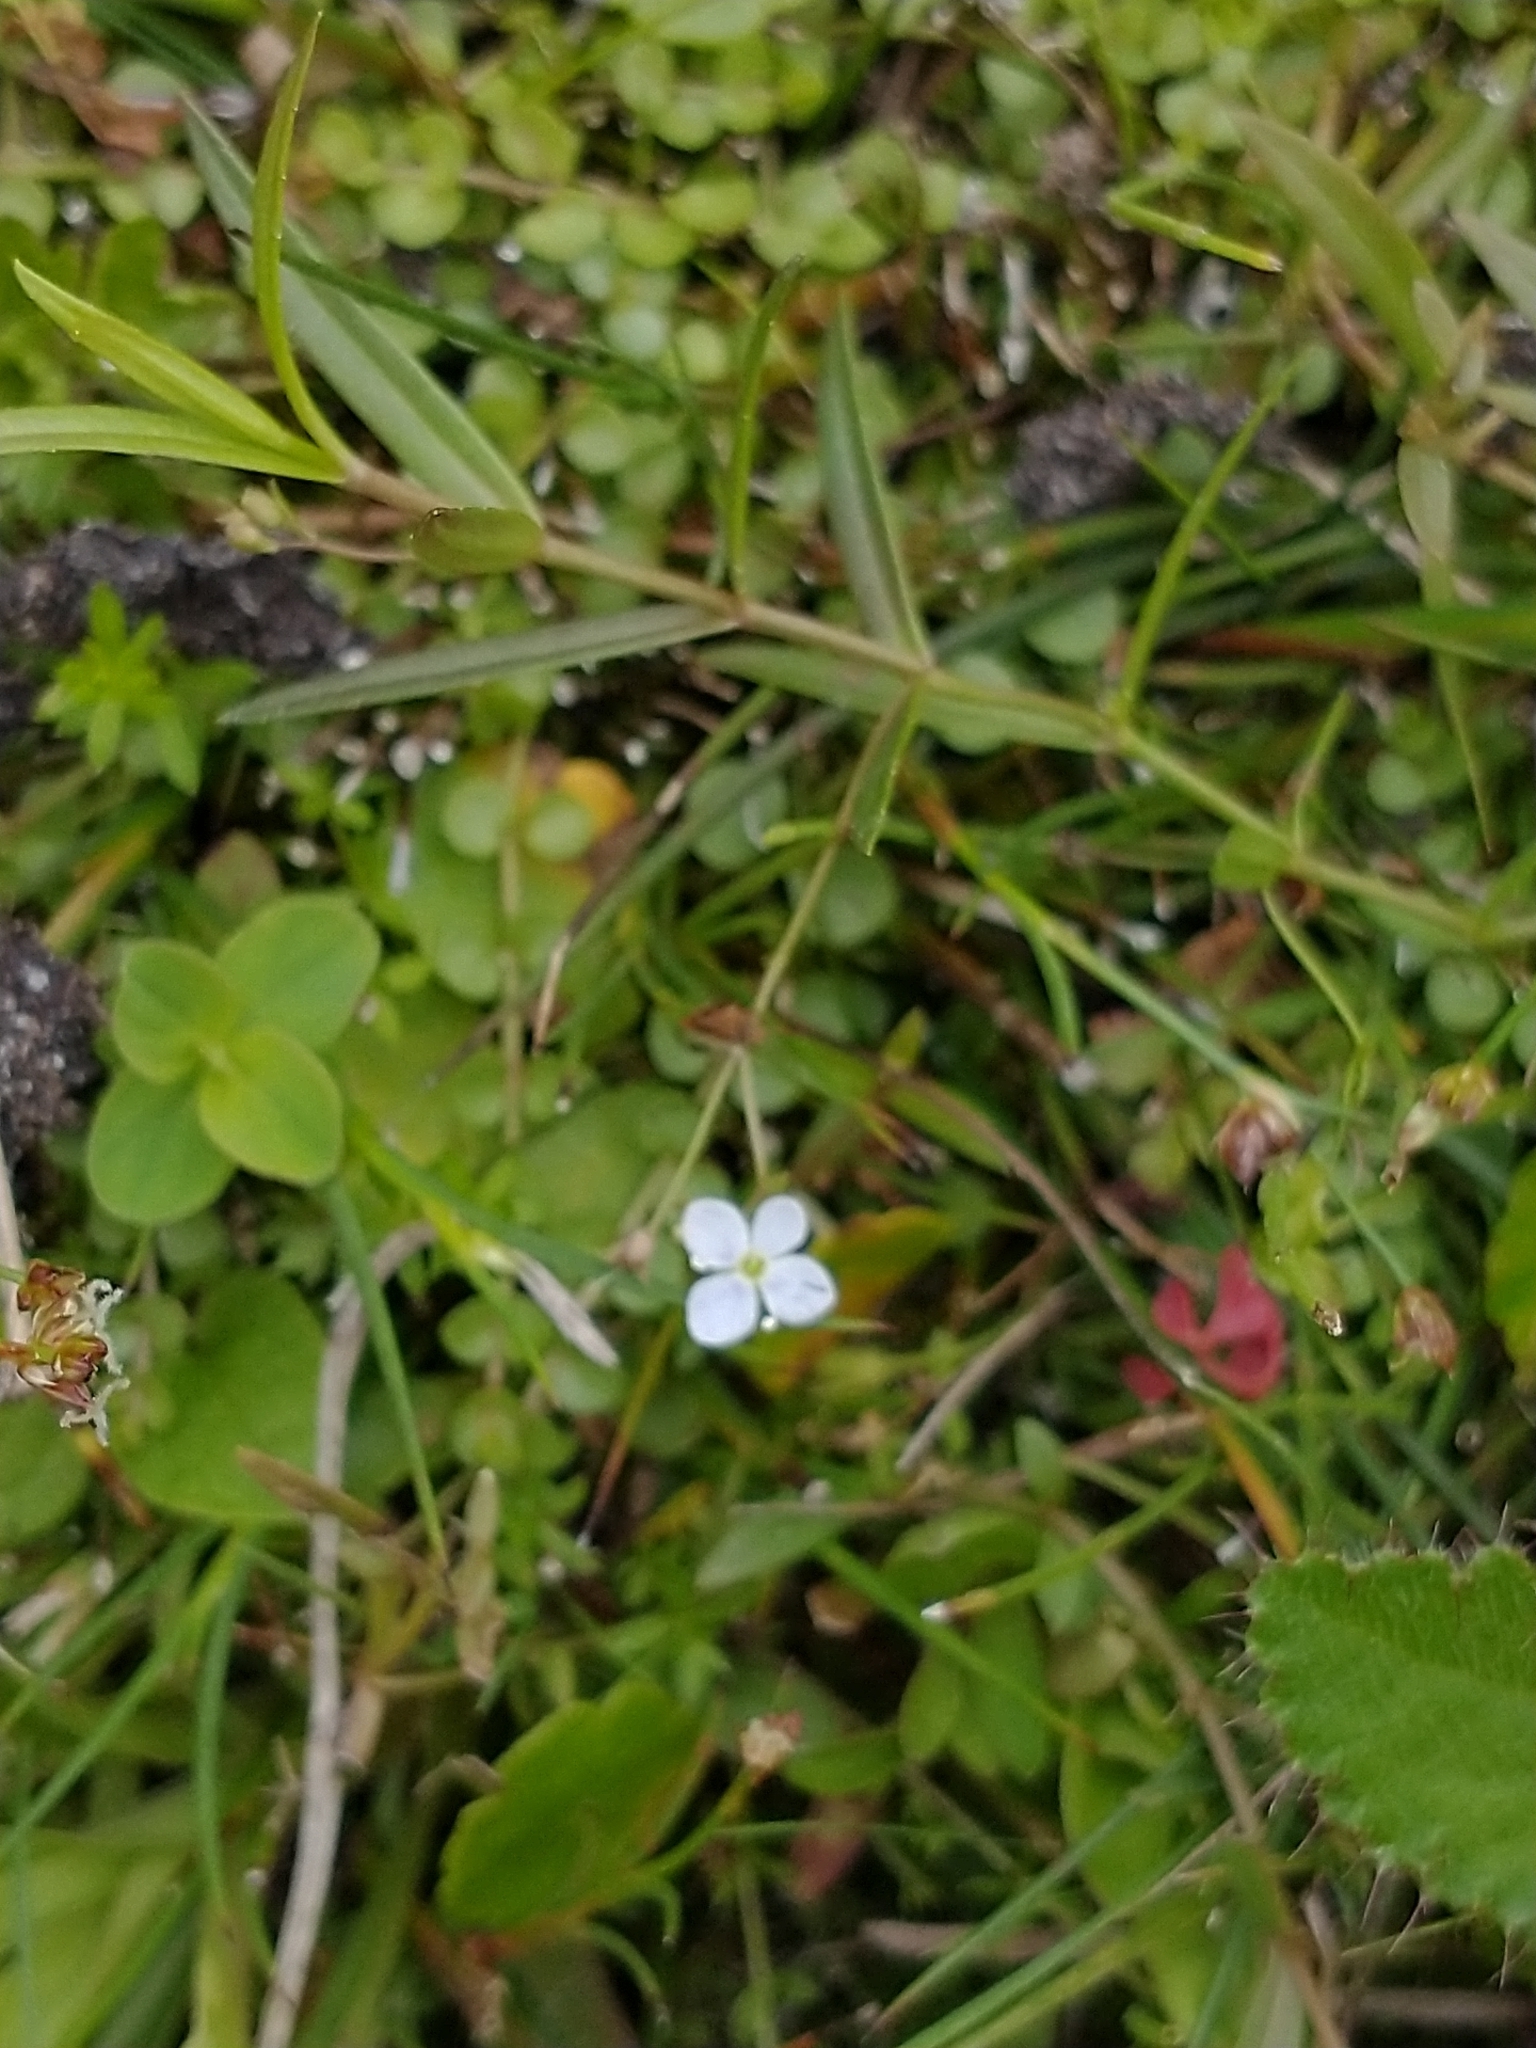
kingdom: Plantae
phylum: Tracheophyta
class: Magnoliopsida
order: Lamiales
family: Plantaginaceae
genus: Veronica
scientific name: Veronica scutellata
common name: Marsh speedwell
